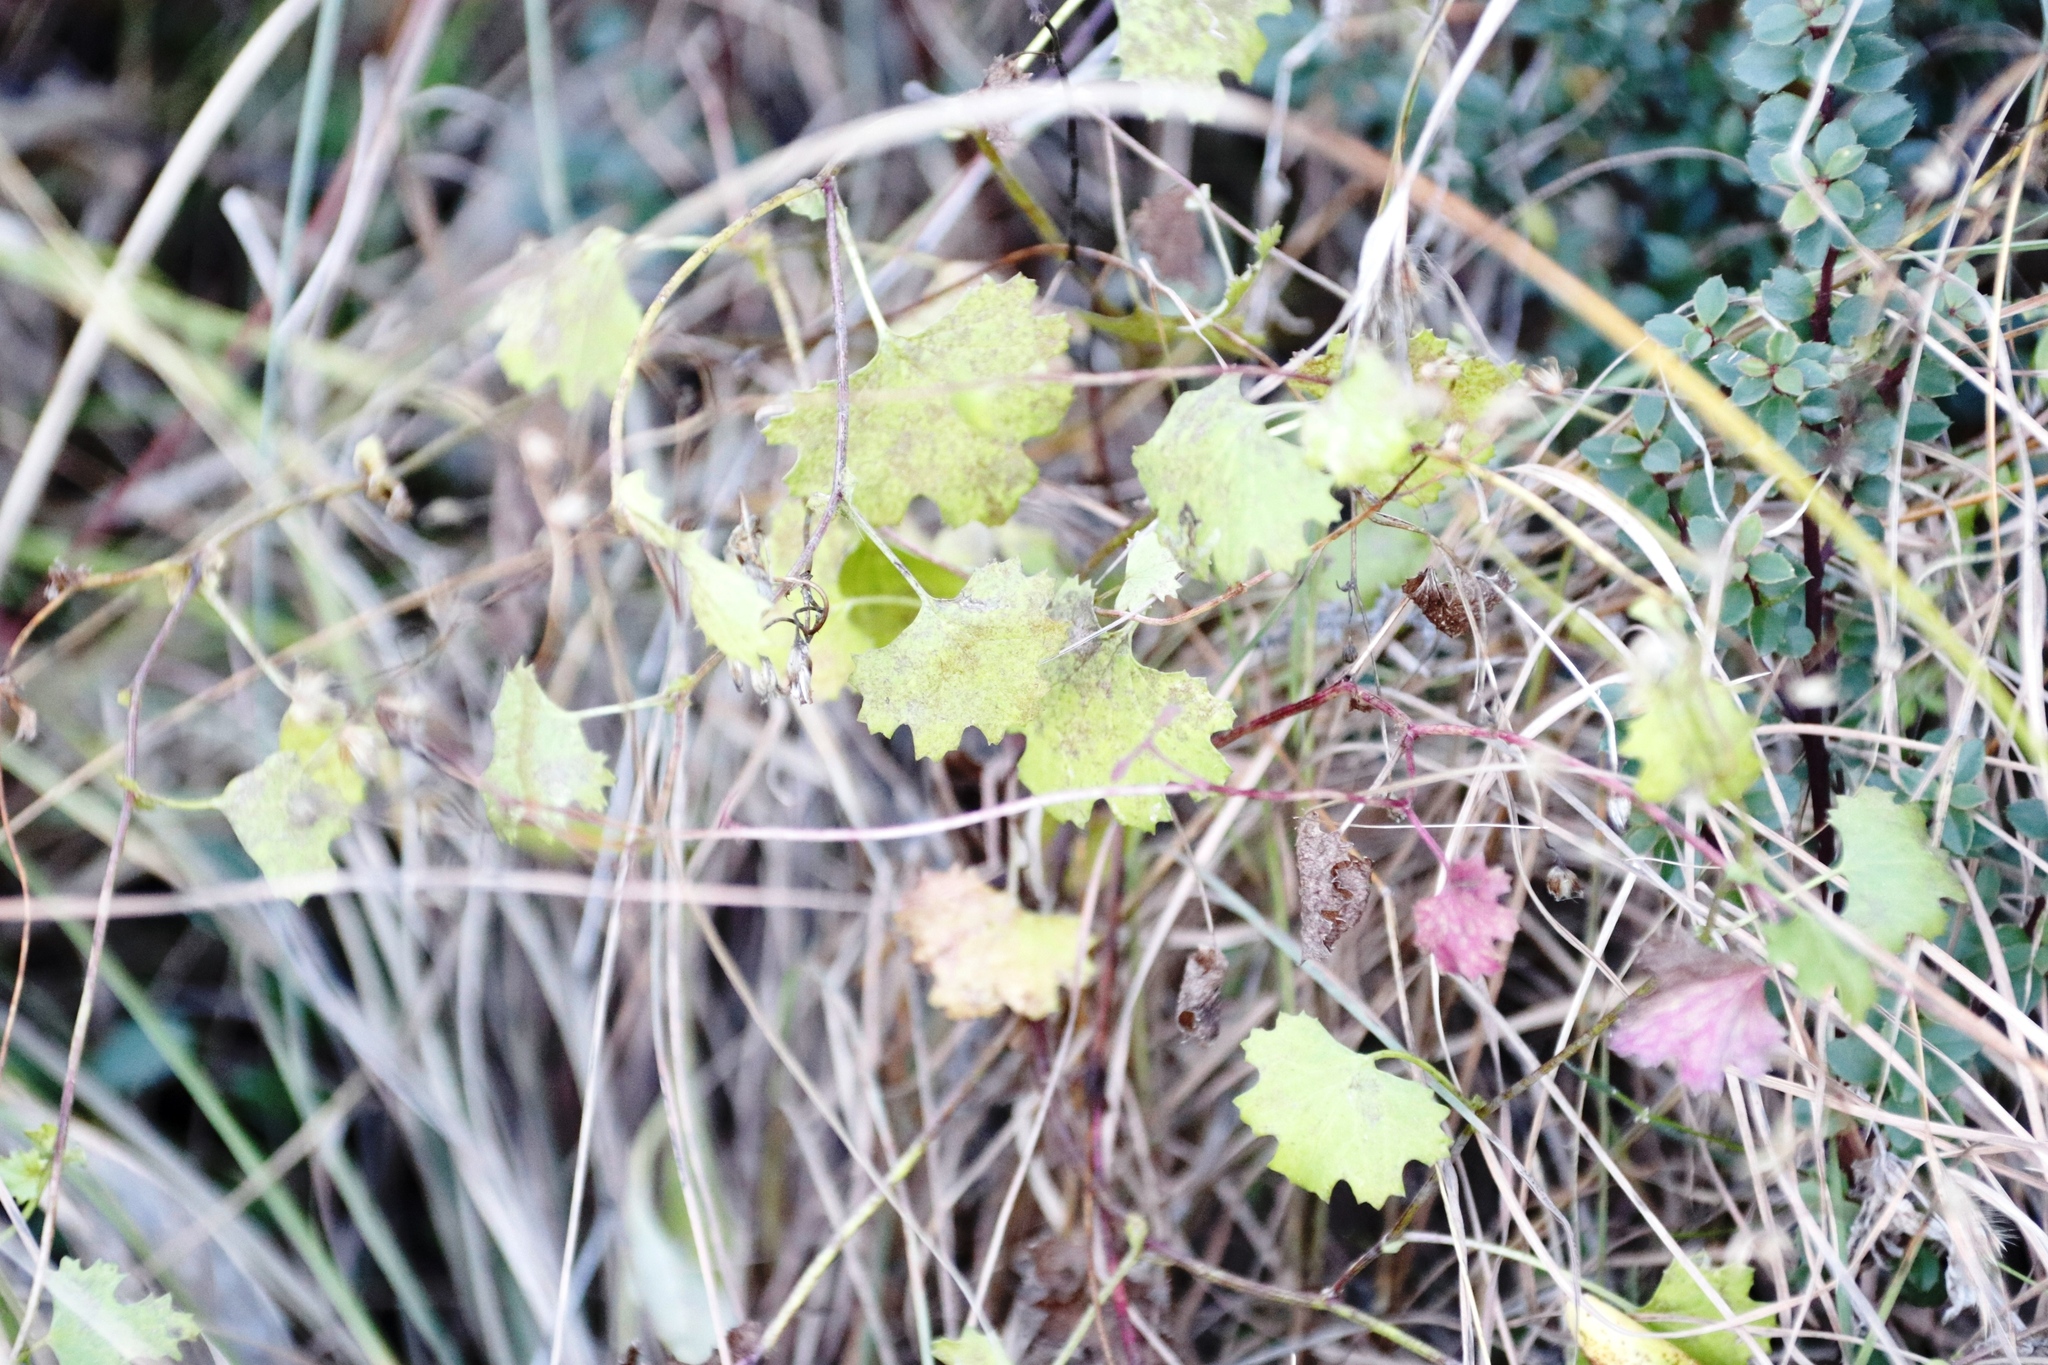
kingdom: Plantae
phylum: Tracheophyta
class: Magnoliopsida
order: Asterales
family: Asteraceae
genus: Cineraria
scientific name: Cineraria erodioides
